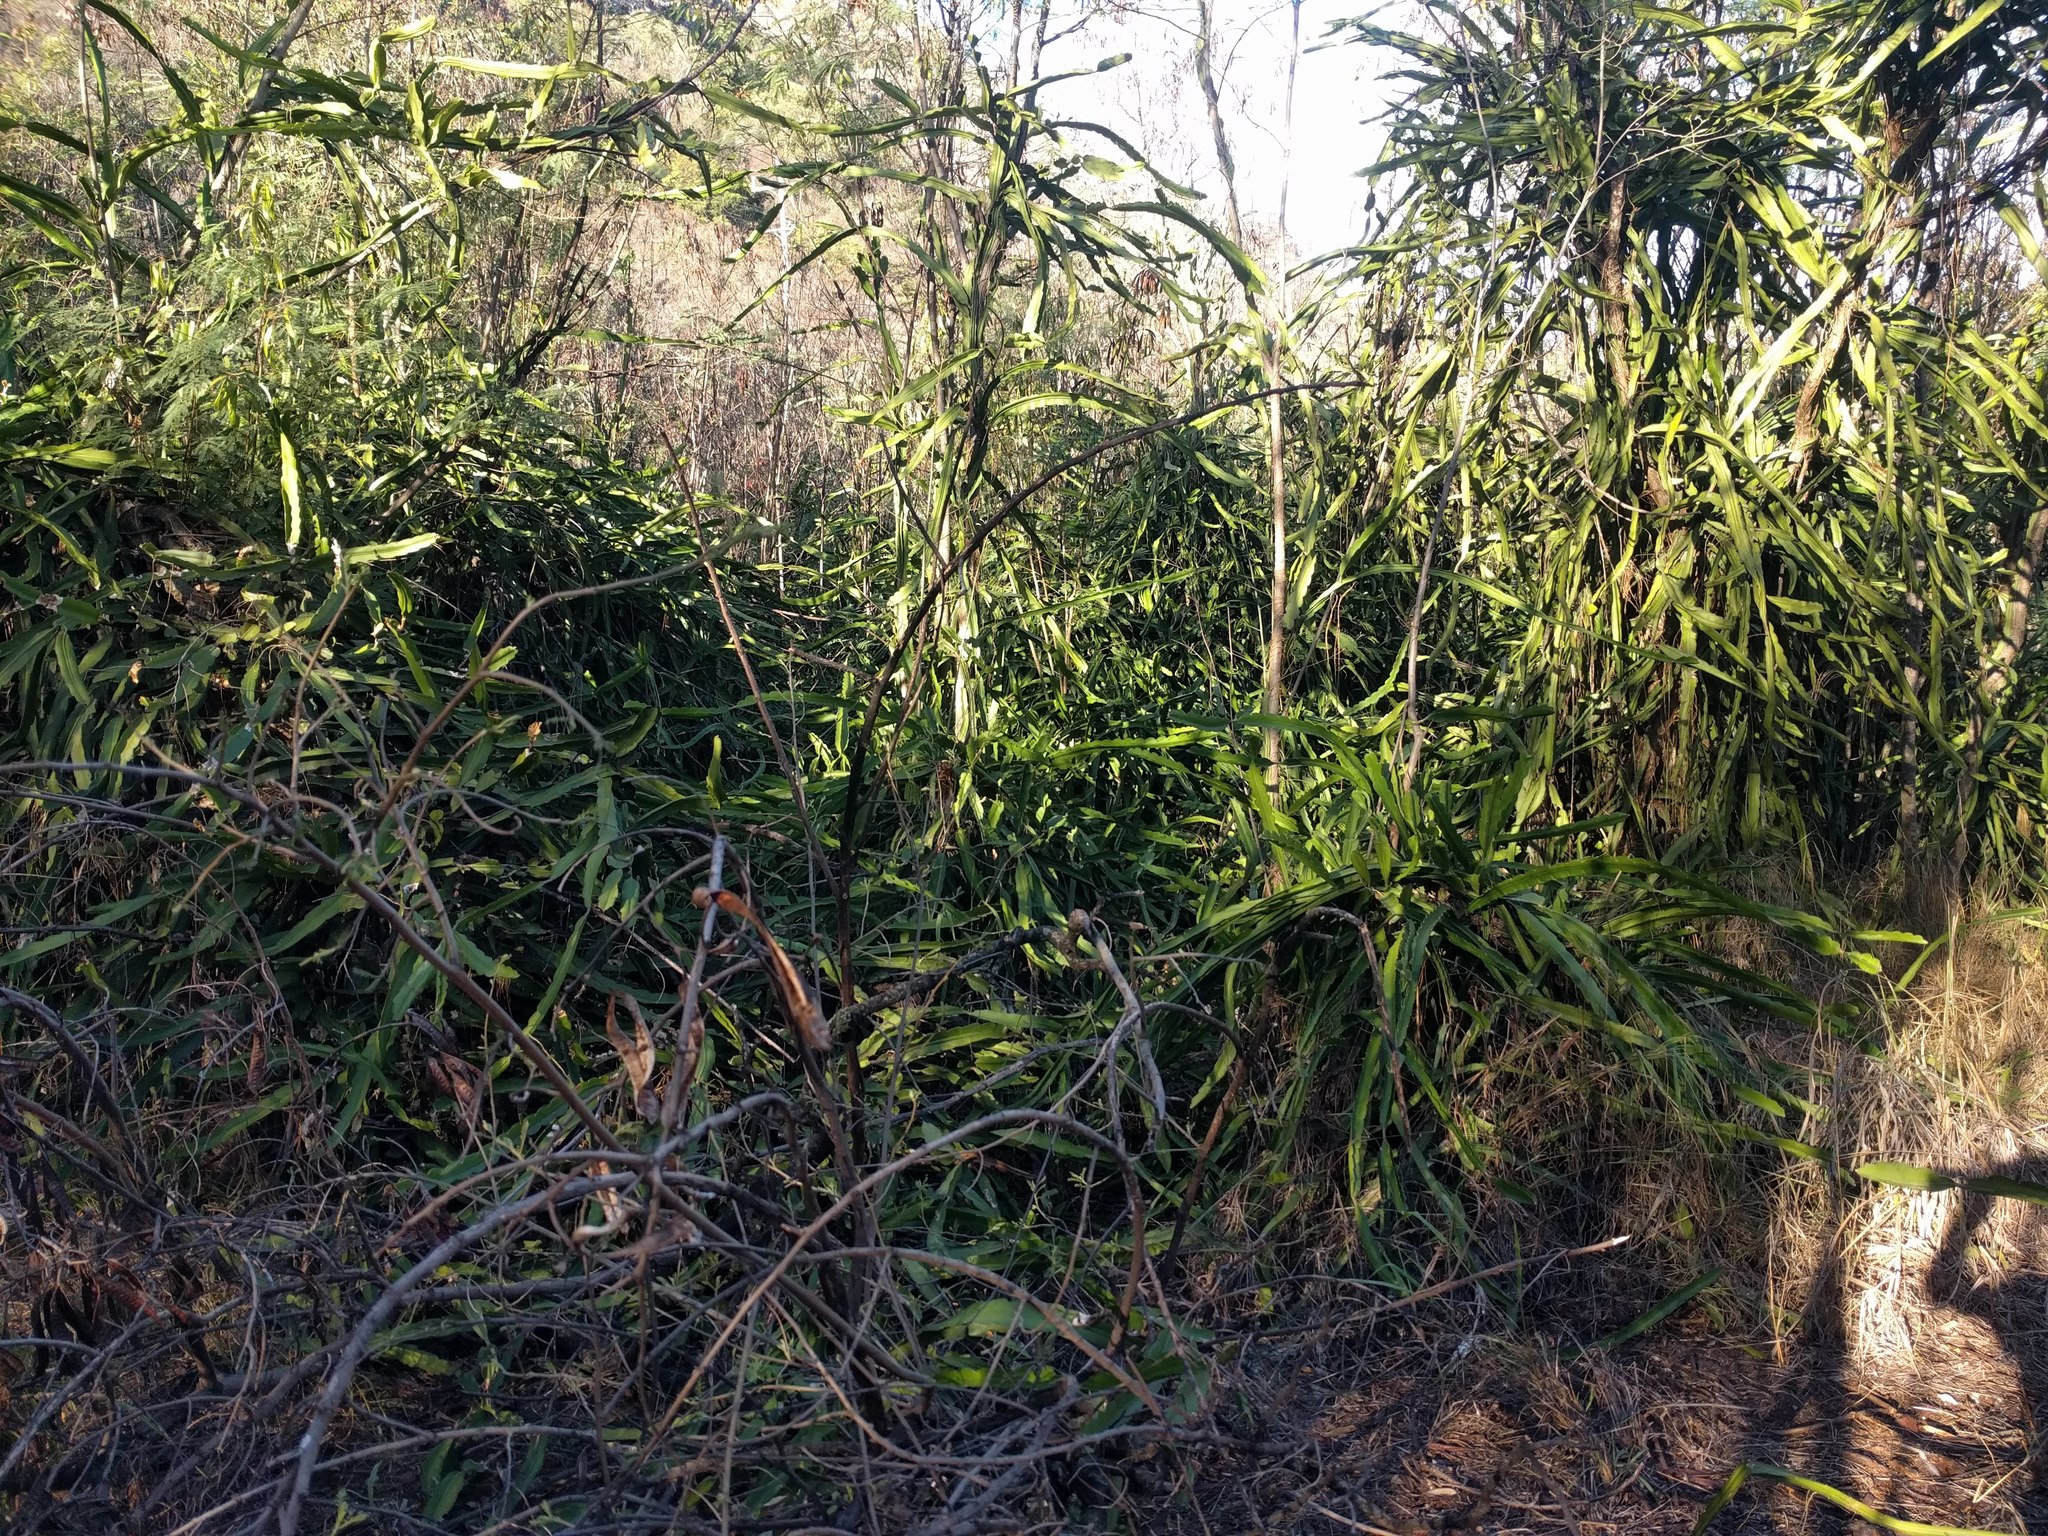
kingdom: Plantae
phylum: Tracheophyta
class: Magnoliopsida
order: Caryophyllales
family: Cactaceae
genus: Selenicereus
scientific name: Selenicereus undatus
